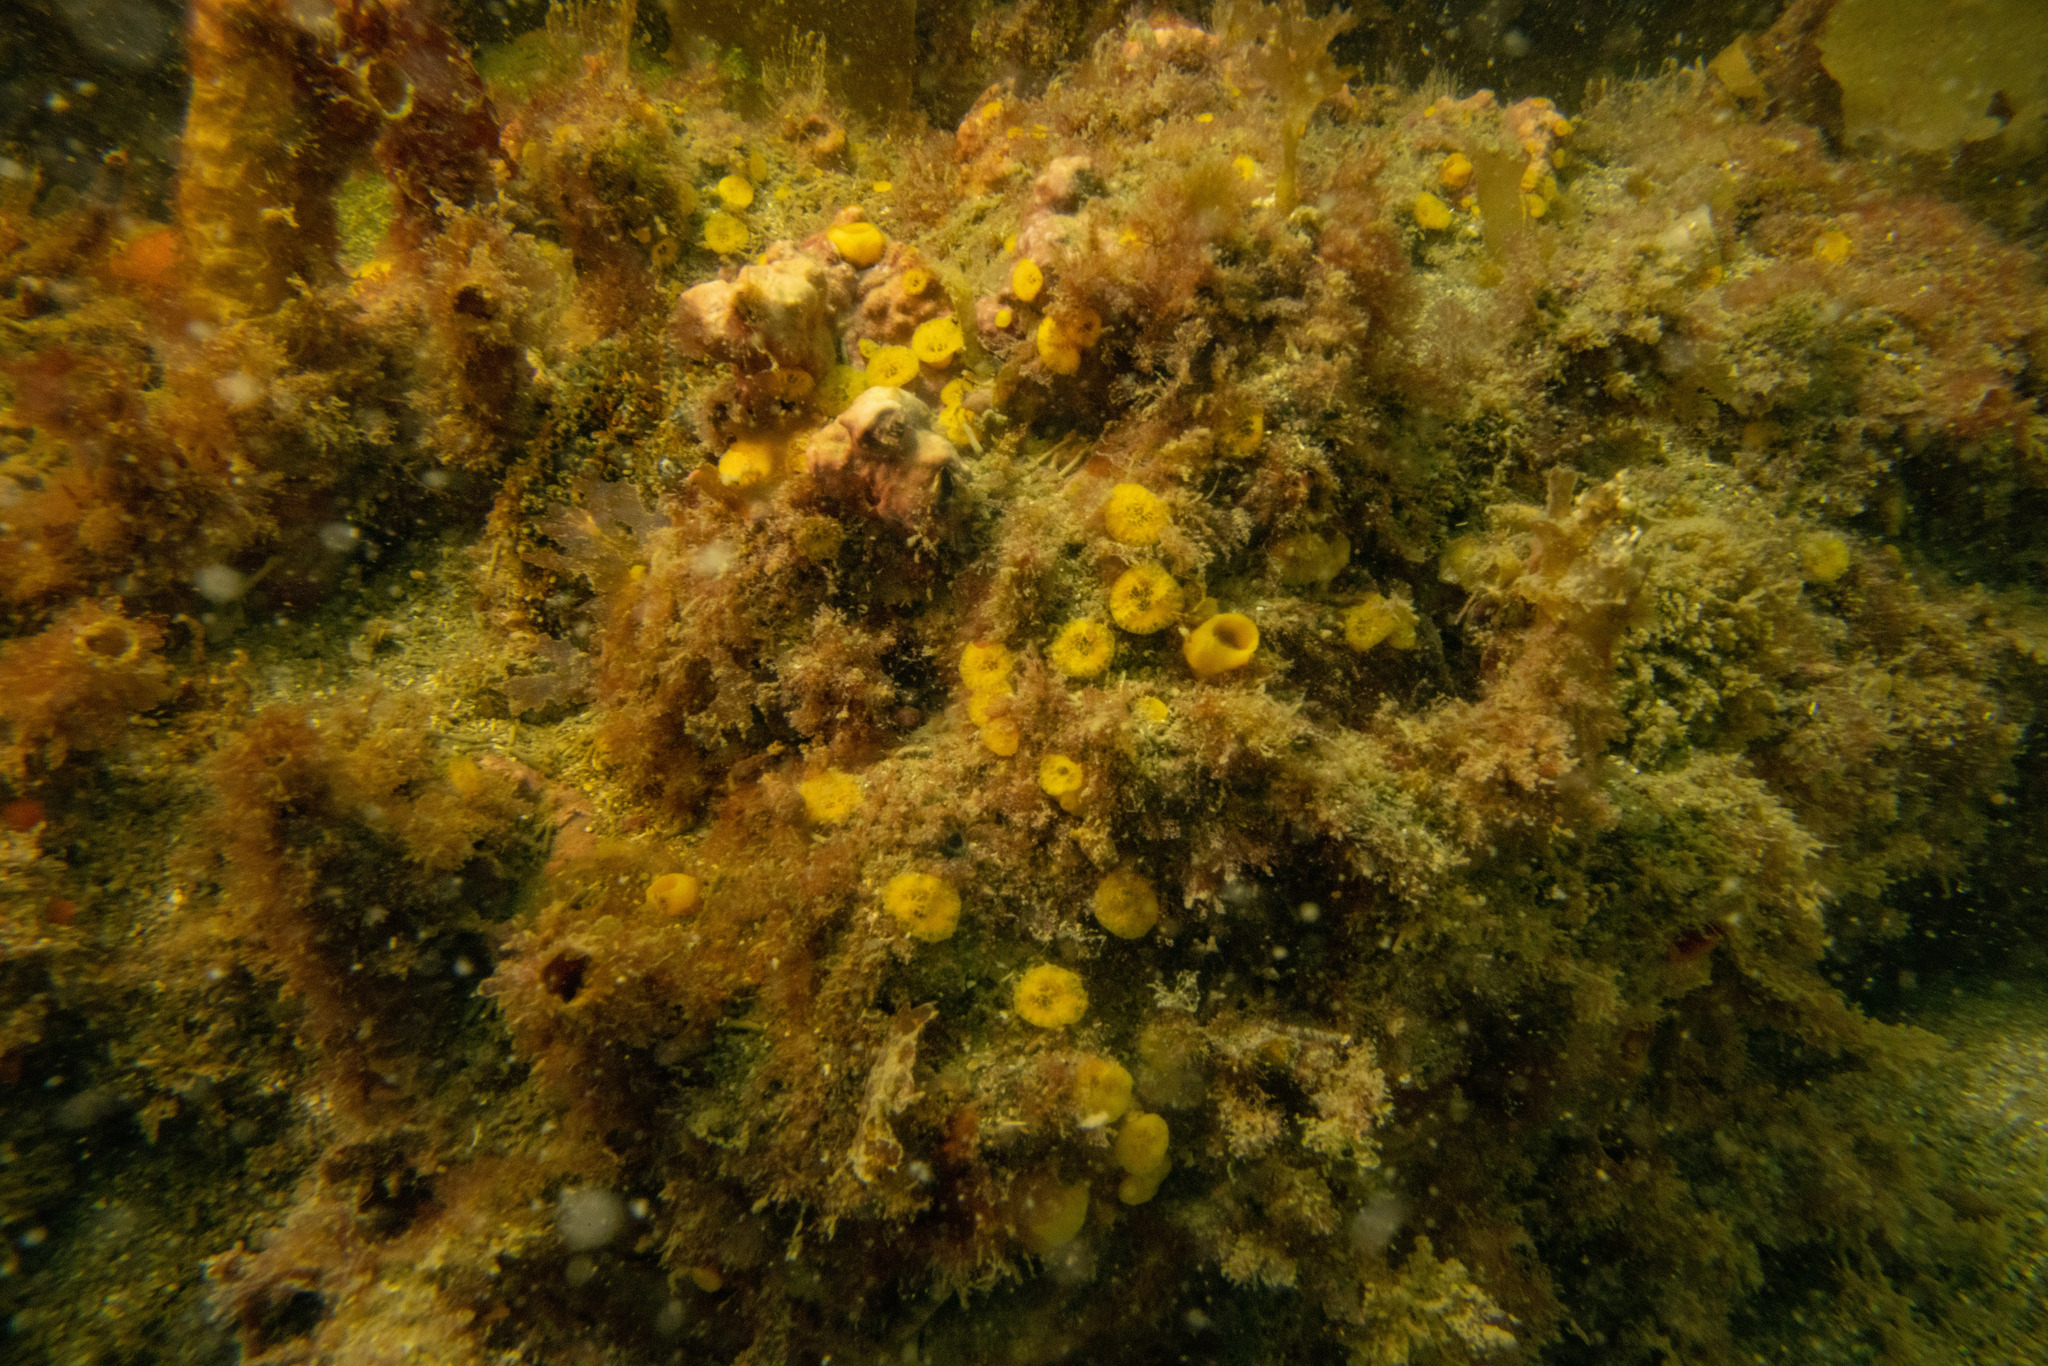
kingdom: Animalia
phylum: Porifera
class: Demospongiae
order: Clionaida
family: Clionaidae
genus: Cliona
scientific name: Cliona celata
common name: Boring sponge
